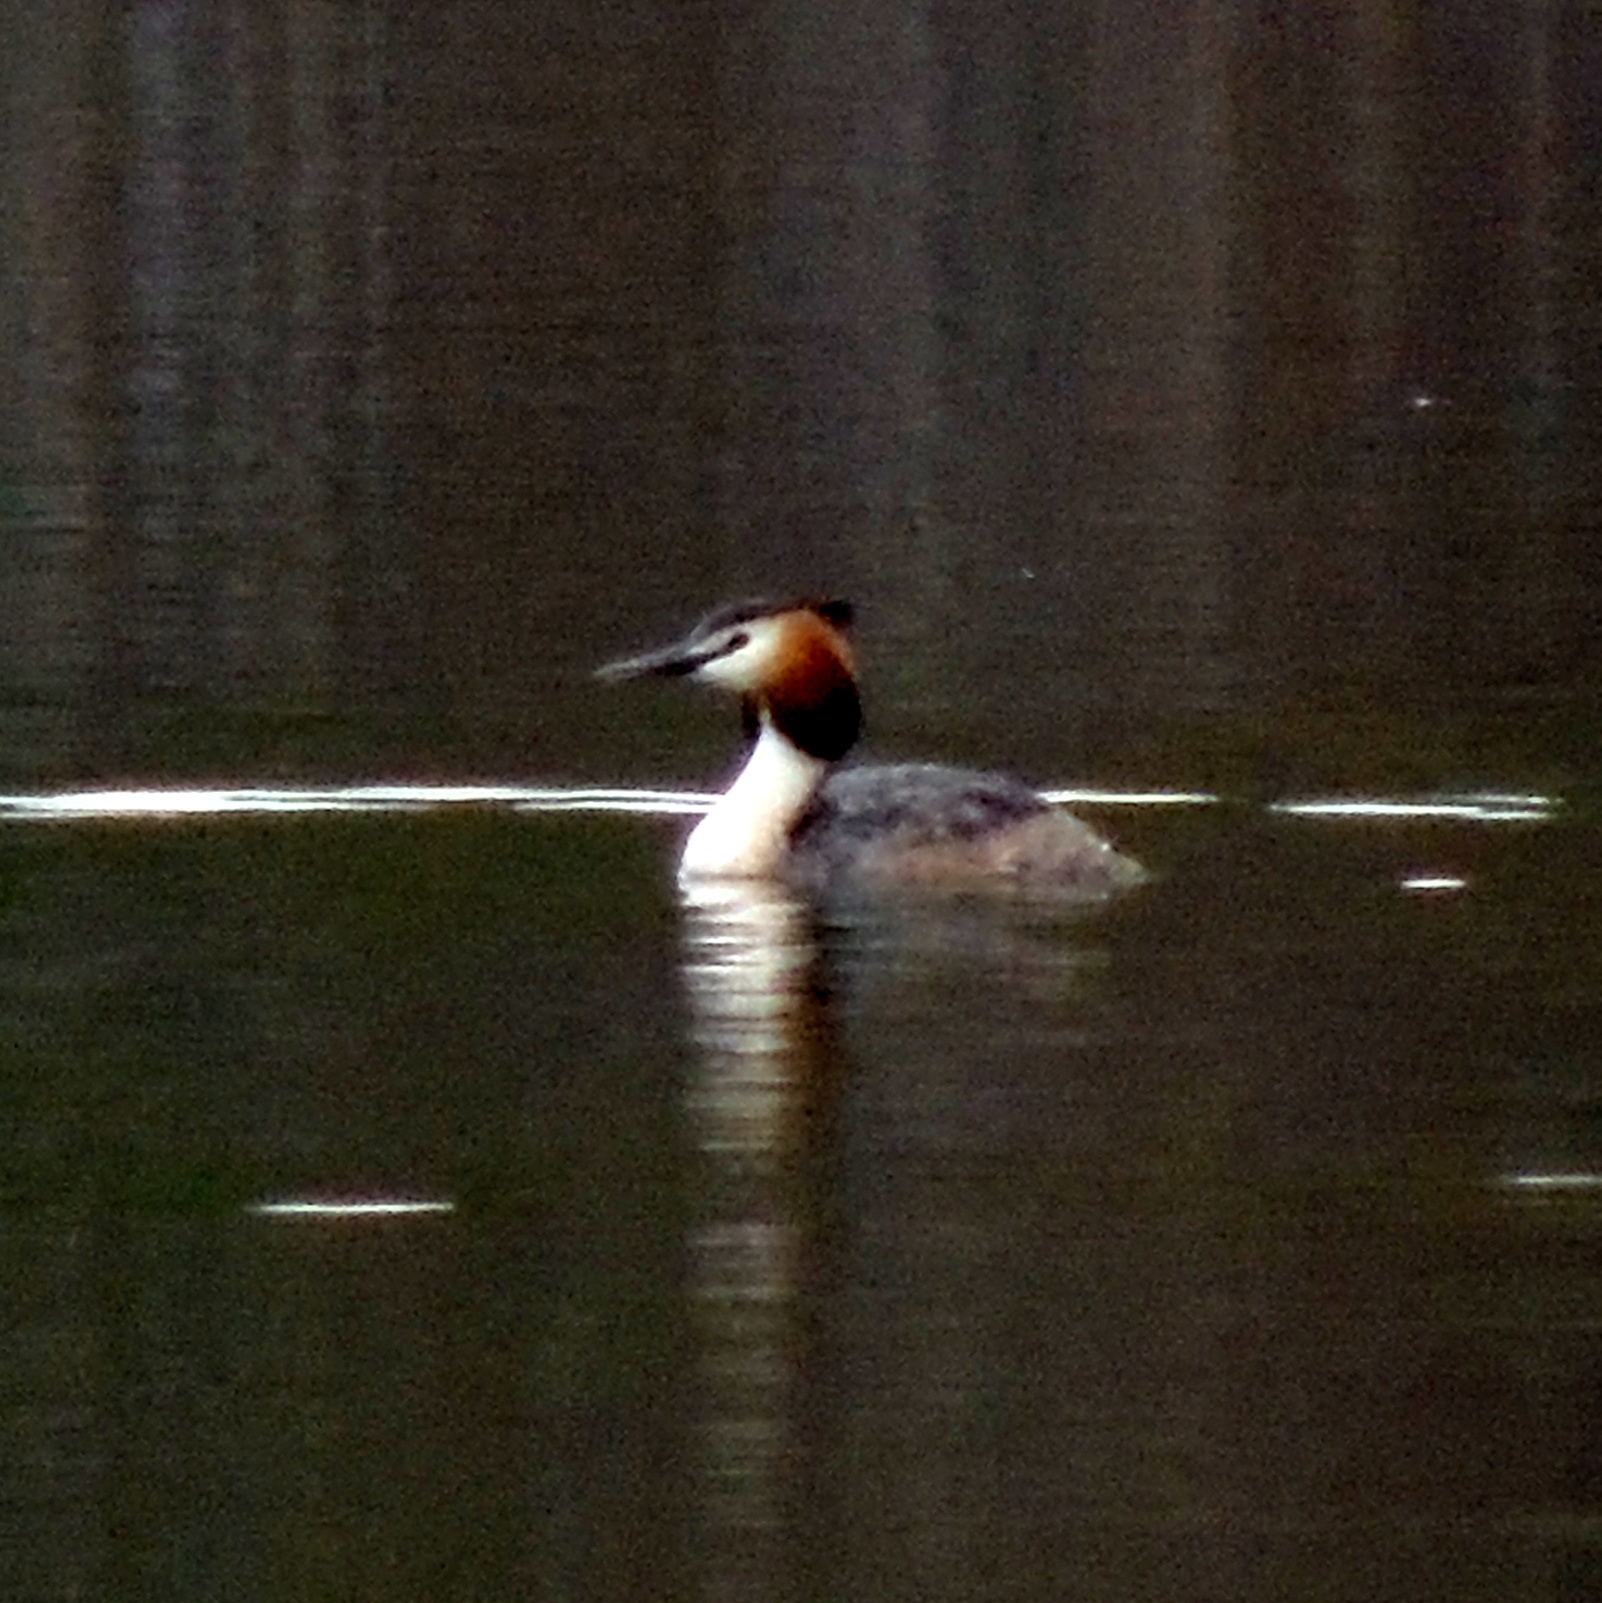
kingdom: Animalia
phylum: Chordata
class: Aves
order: Podicipediformes
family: Podicipedidae
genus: Podiceps
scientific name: Podiceps cristatus
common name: Great crested grebe
